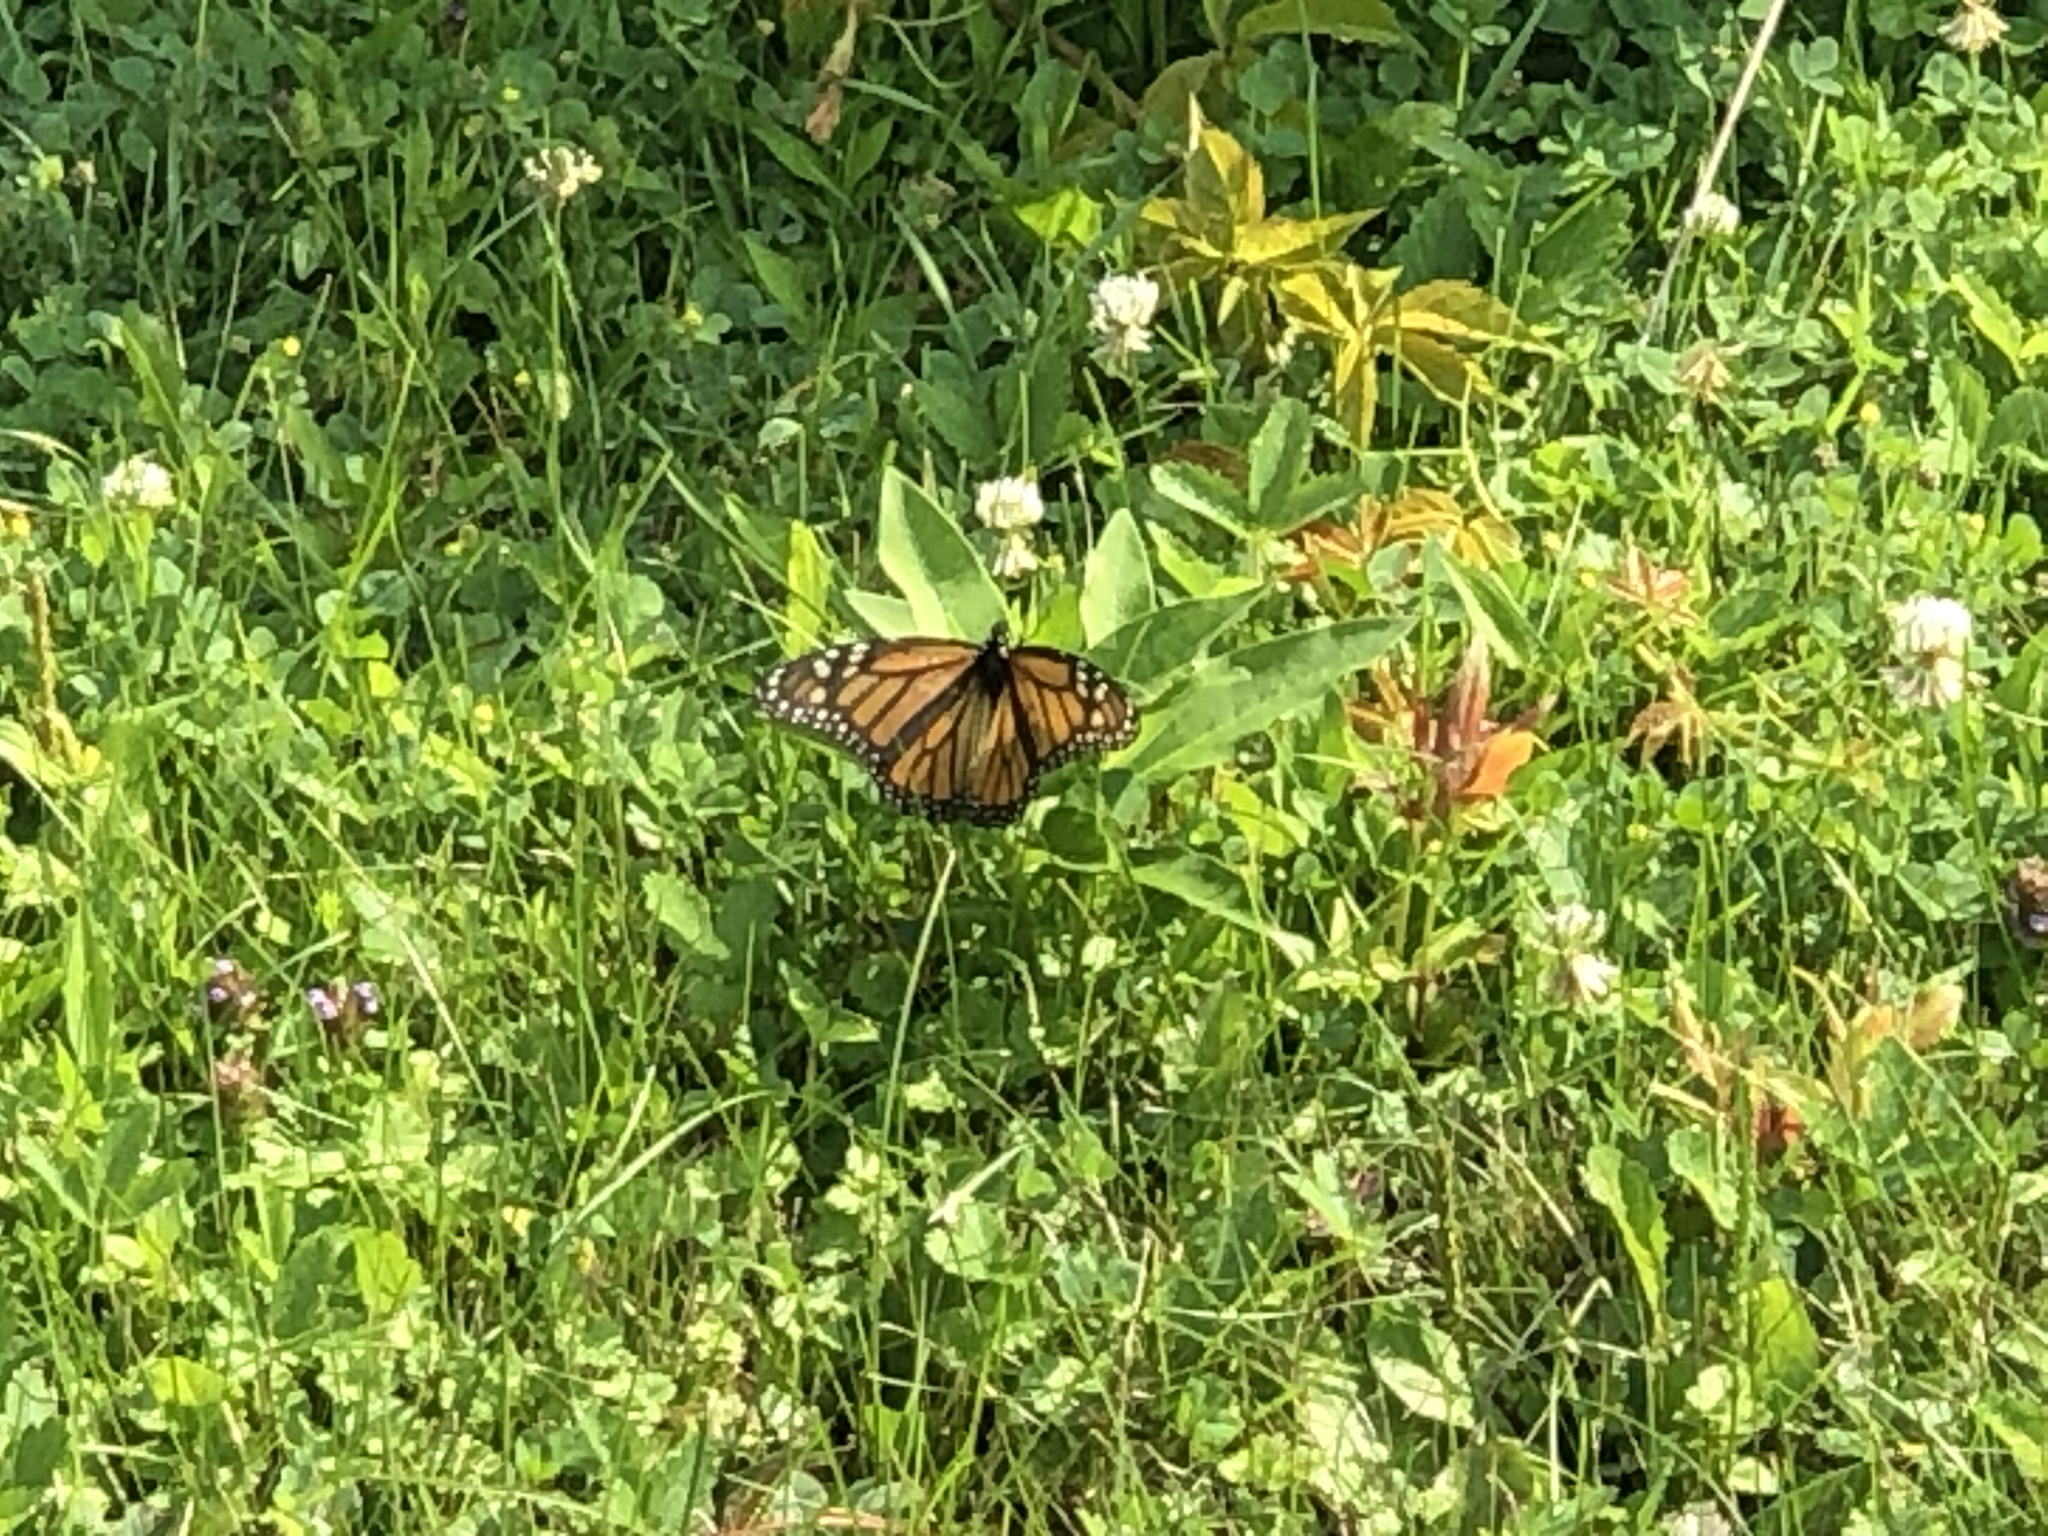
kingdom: Animalia
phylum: Arthropoda
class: Insecta
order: Lepidoptera
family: Nymphalidae
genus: Danaus
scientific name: Danaus plexippus
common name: Monarch
